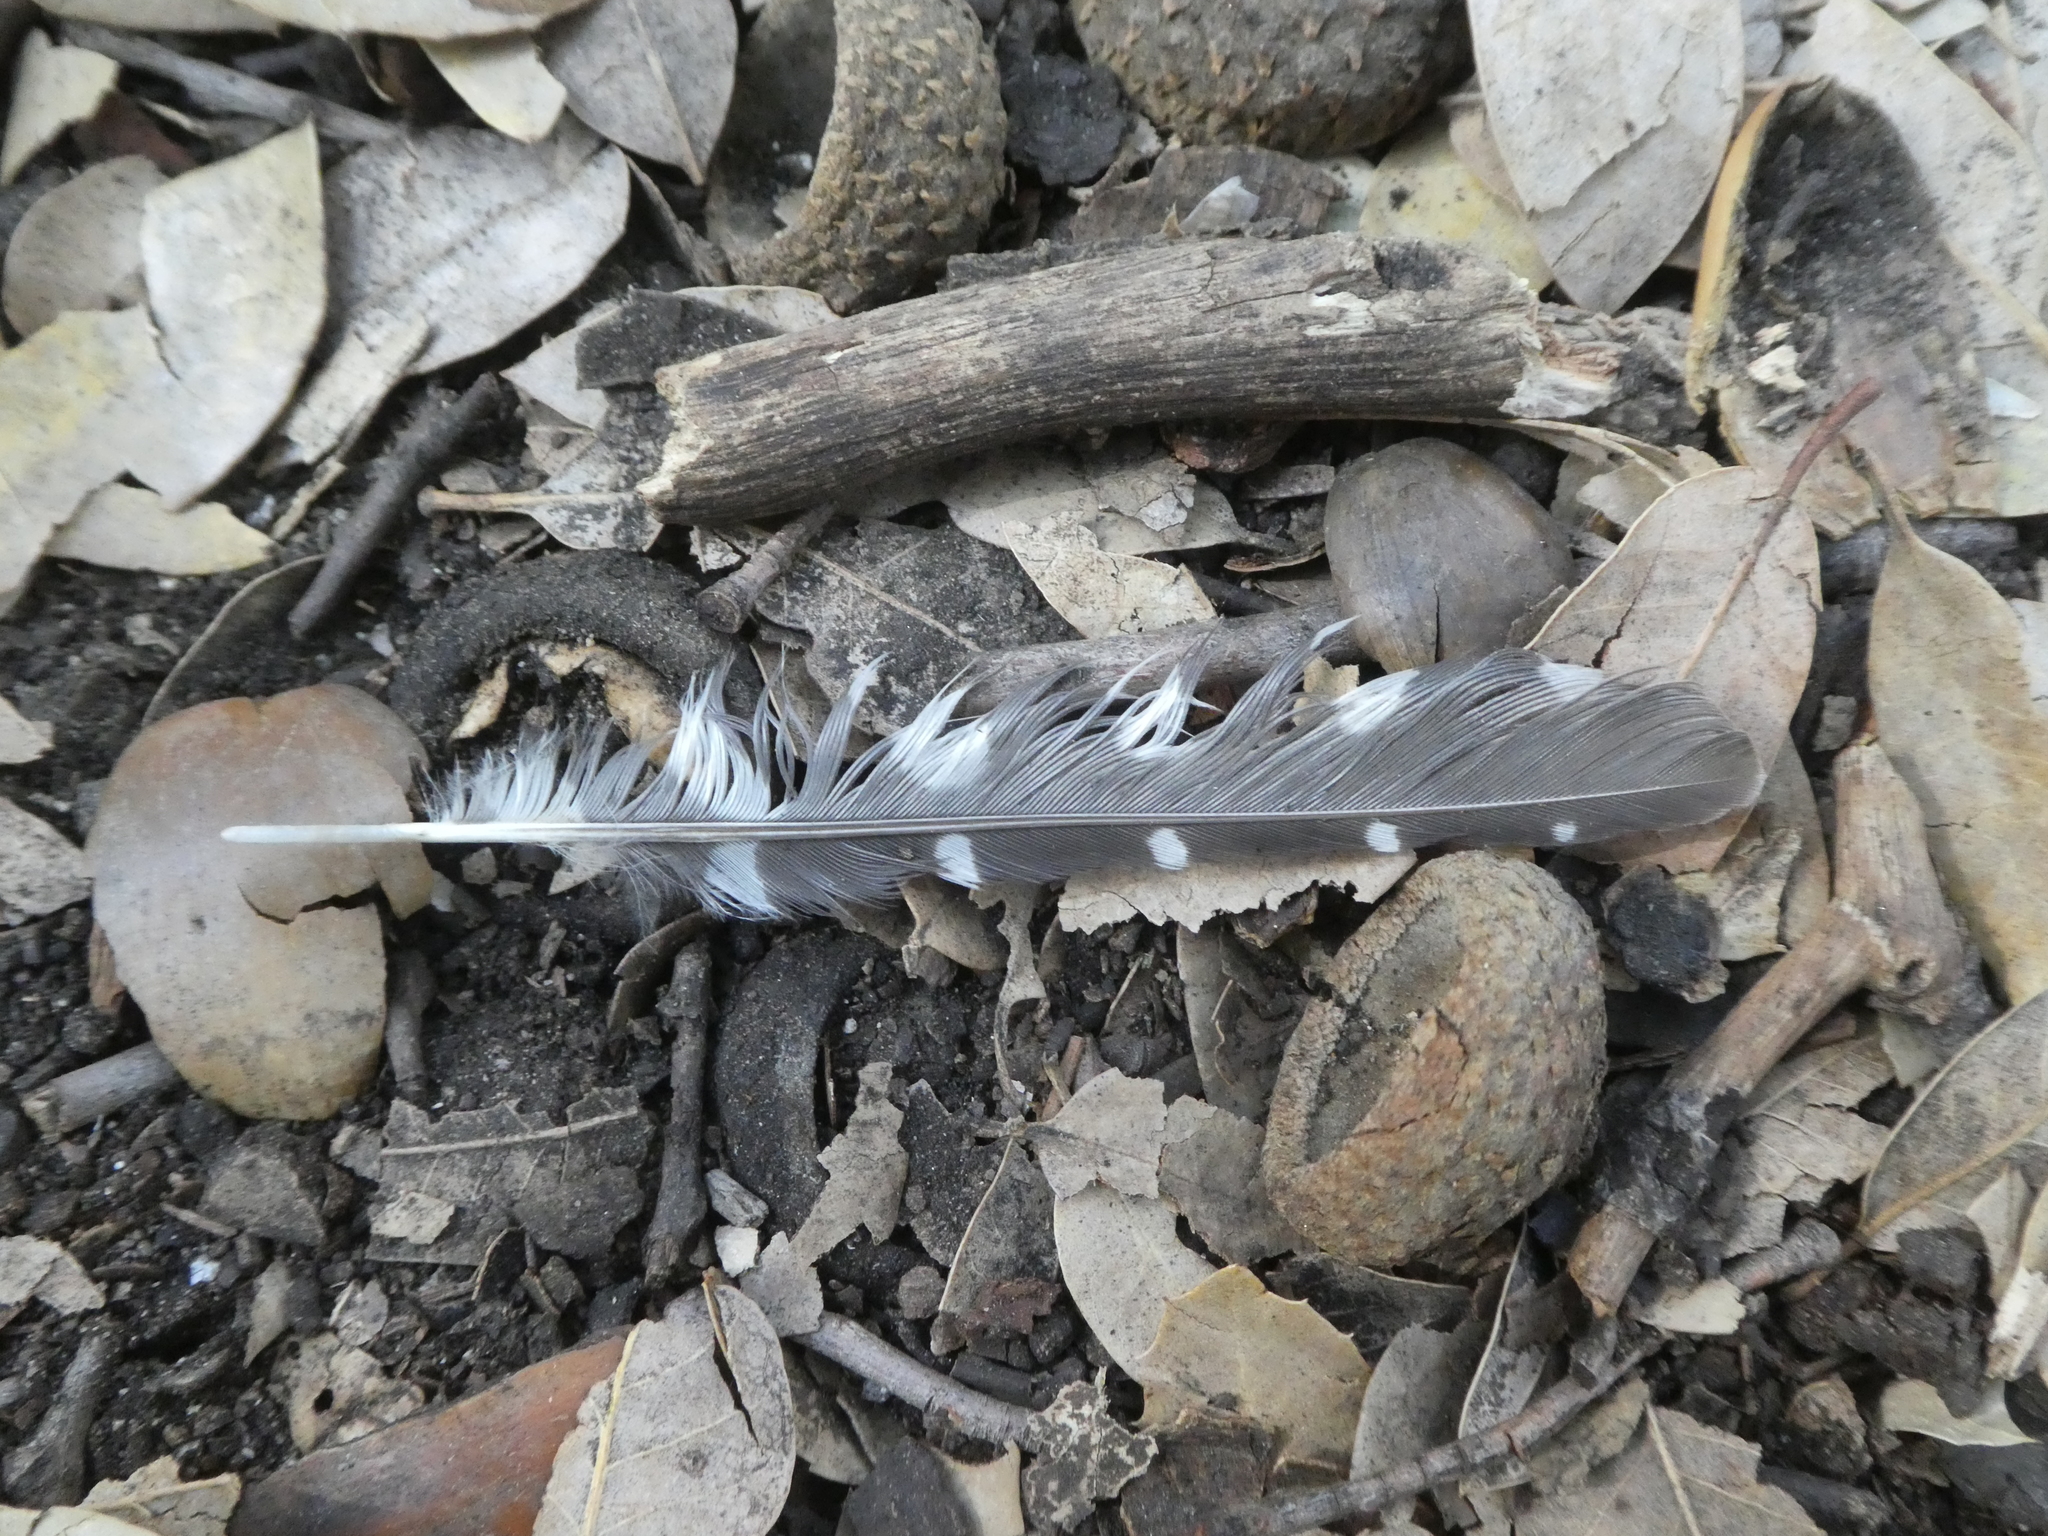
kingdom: Animalia
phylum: Chordata
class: Aves
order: Piciformes
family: Picidae
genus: Dryobates
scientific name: Dryobates nuttallii
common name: Nuttall's woodpecker
